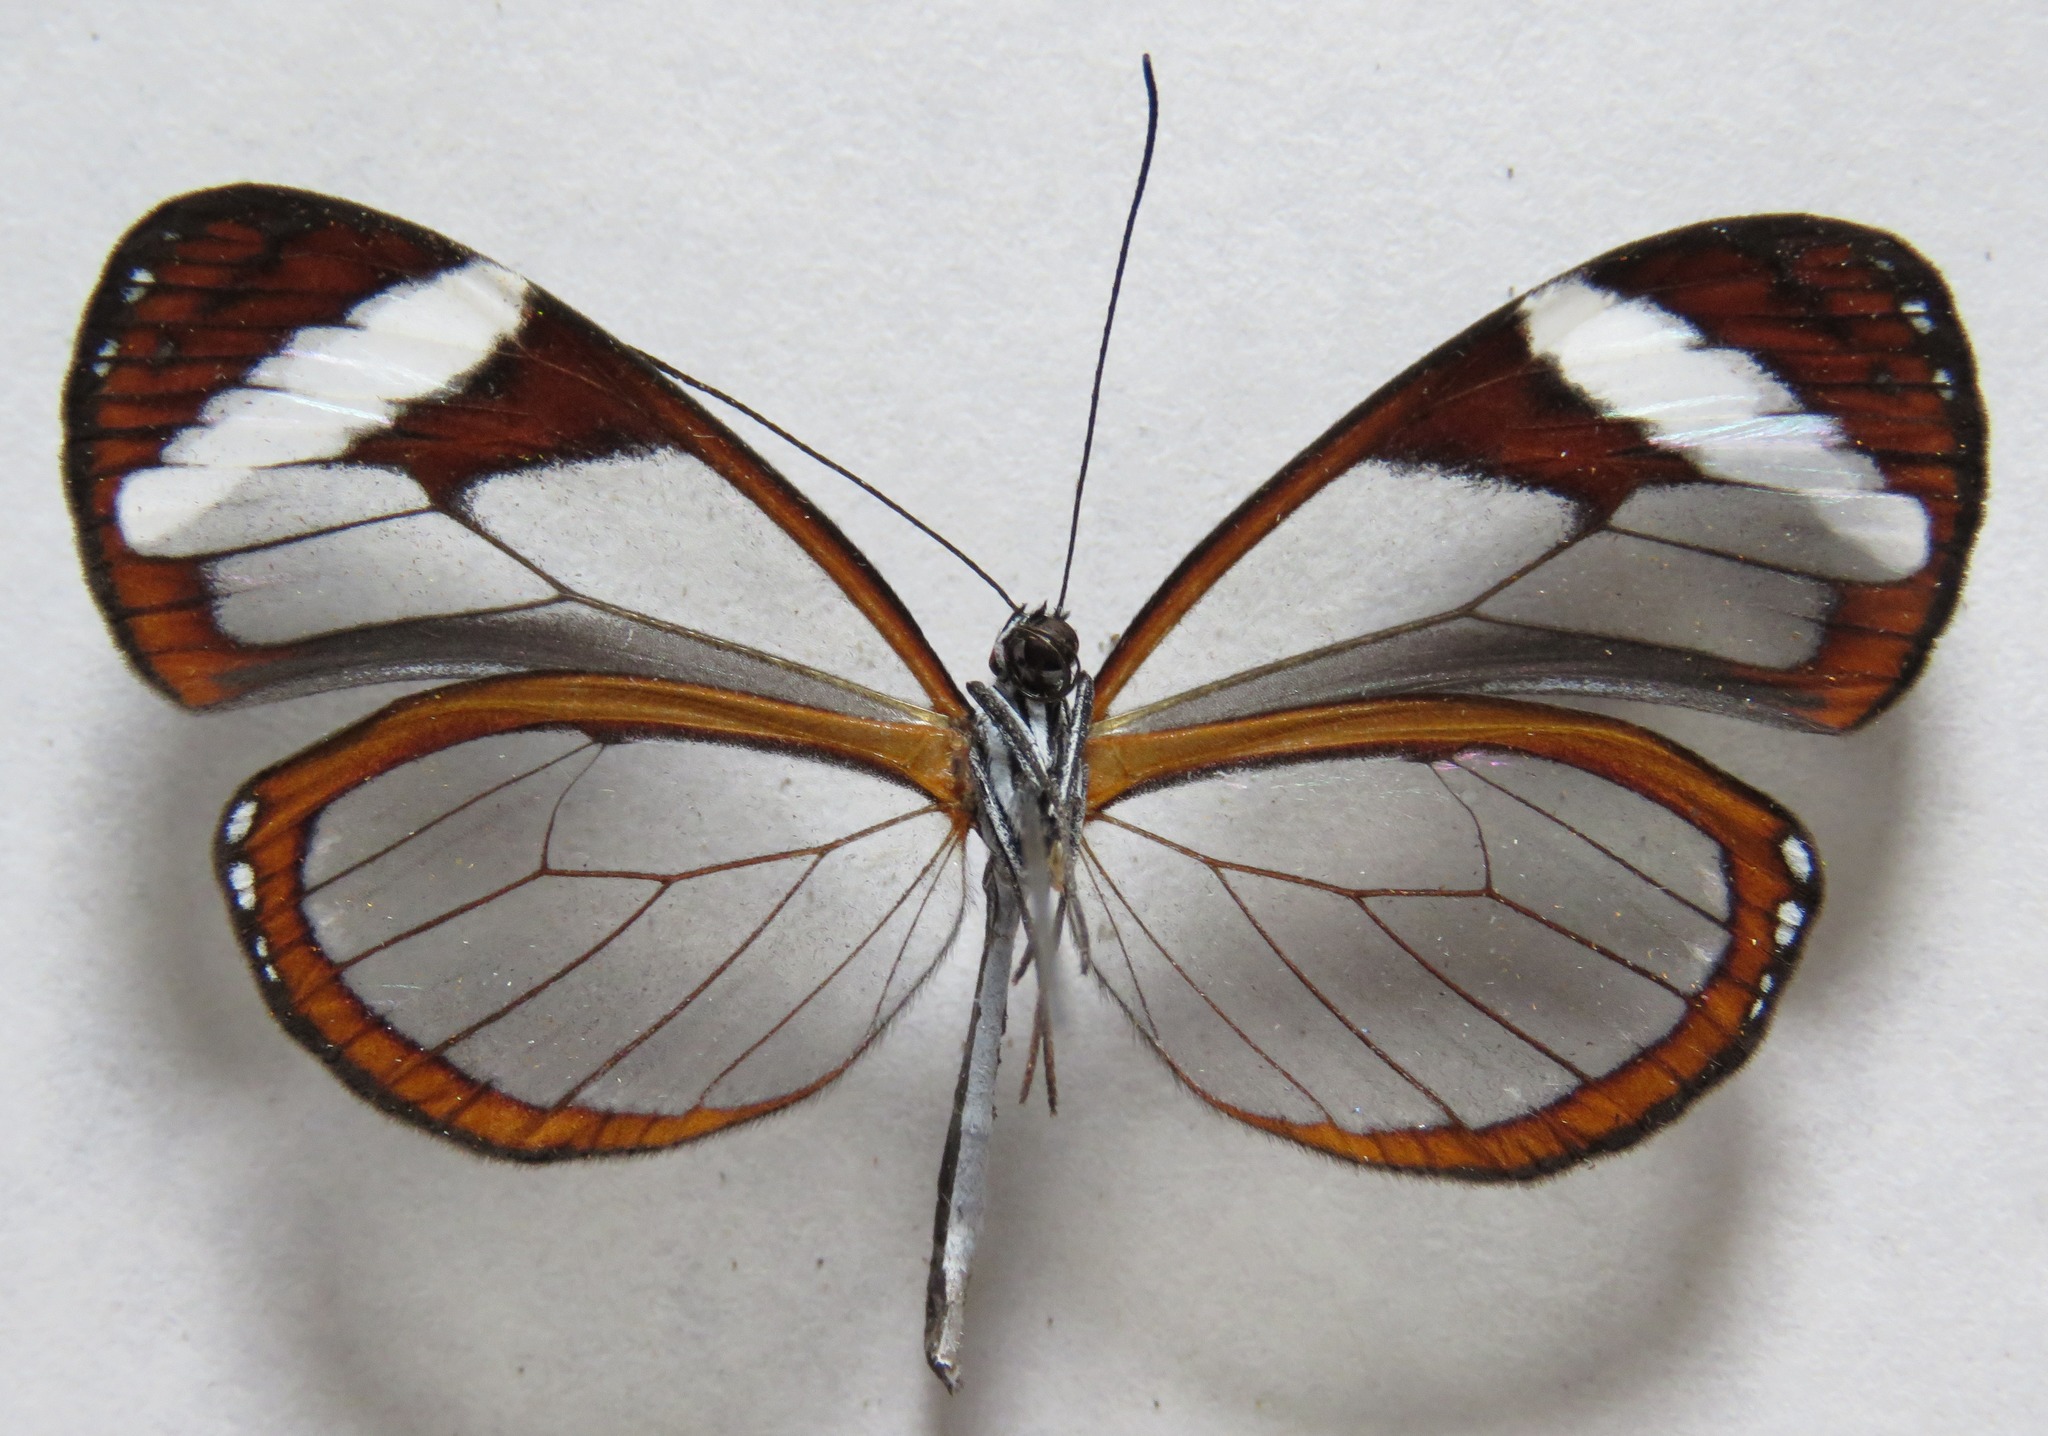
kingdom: Animalia
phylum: Arthropoda
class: Insecta
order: Lepidoptera
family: Nymphalidae
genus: Oleria
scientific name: Oleria paula
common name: Paula's clearwing
